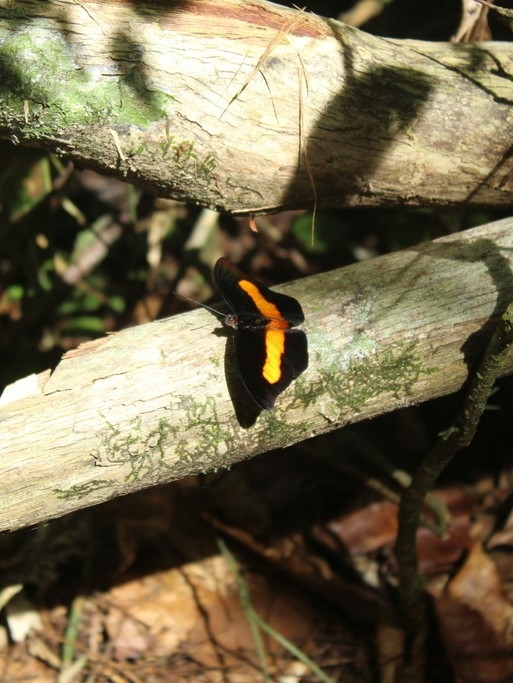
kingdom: Animalia
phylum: Arthropoda
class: Insecta
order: Lepidoptera
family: Nymphalidae
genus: Catonephele
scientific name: Catonephele acontius
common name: Unspotted firewing
